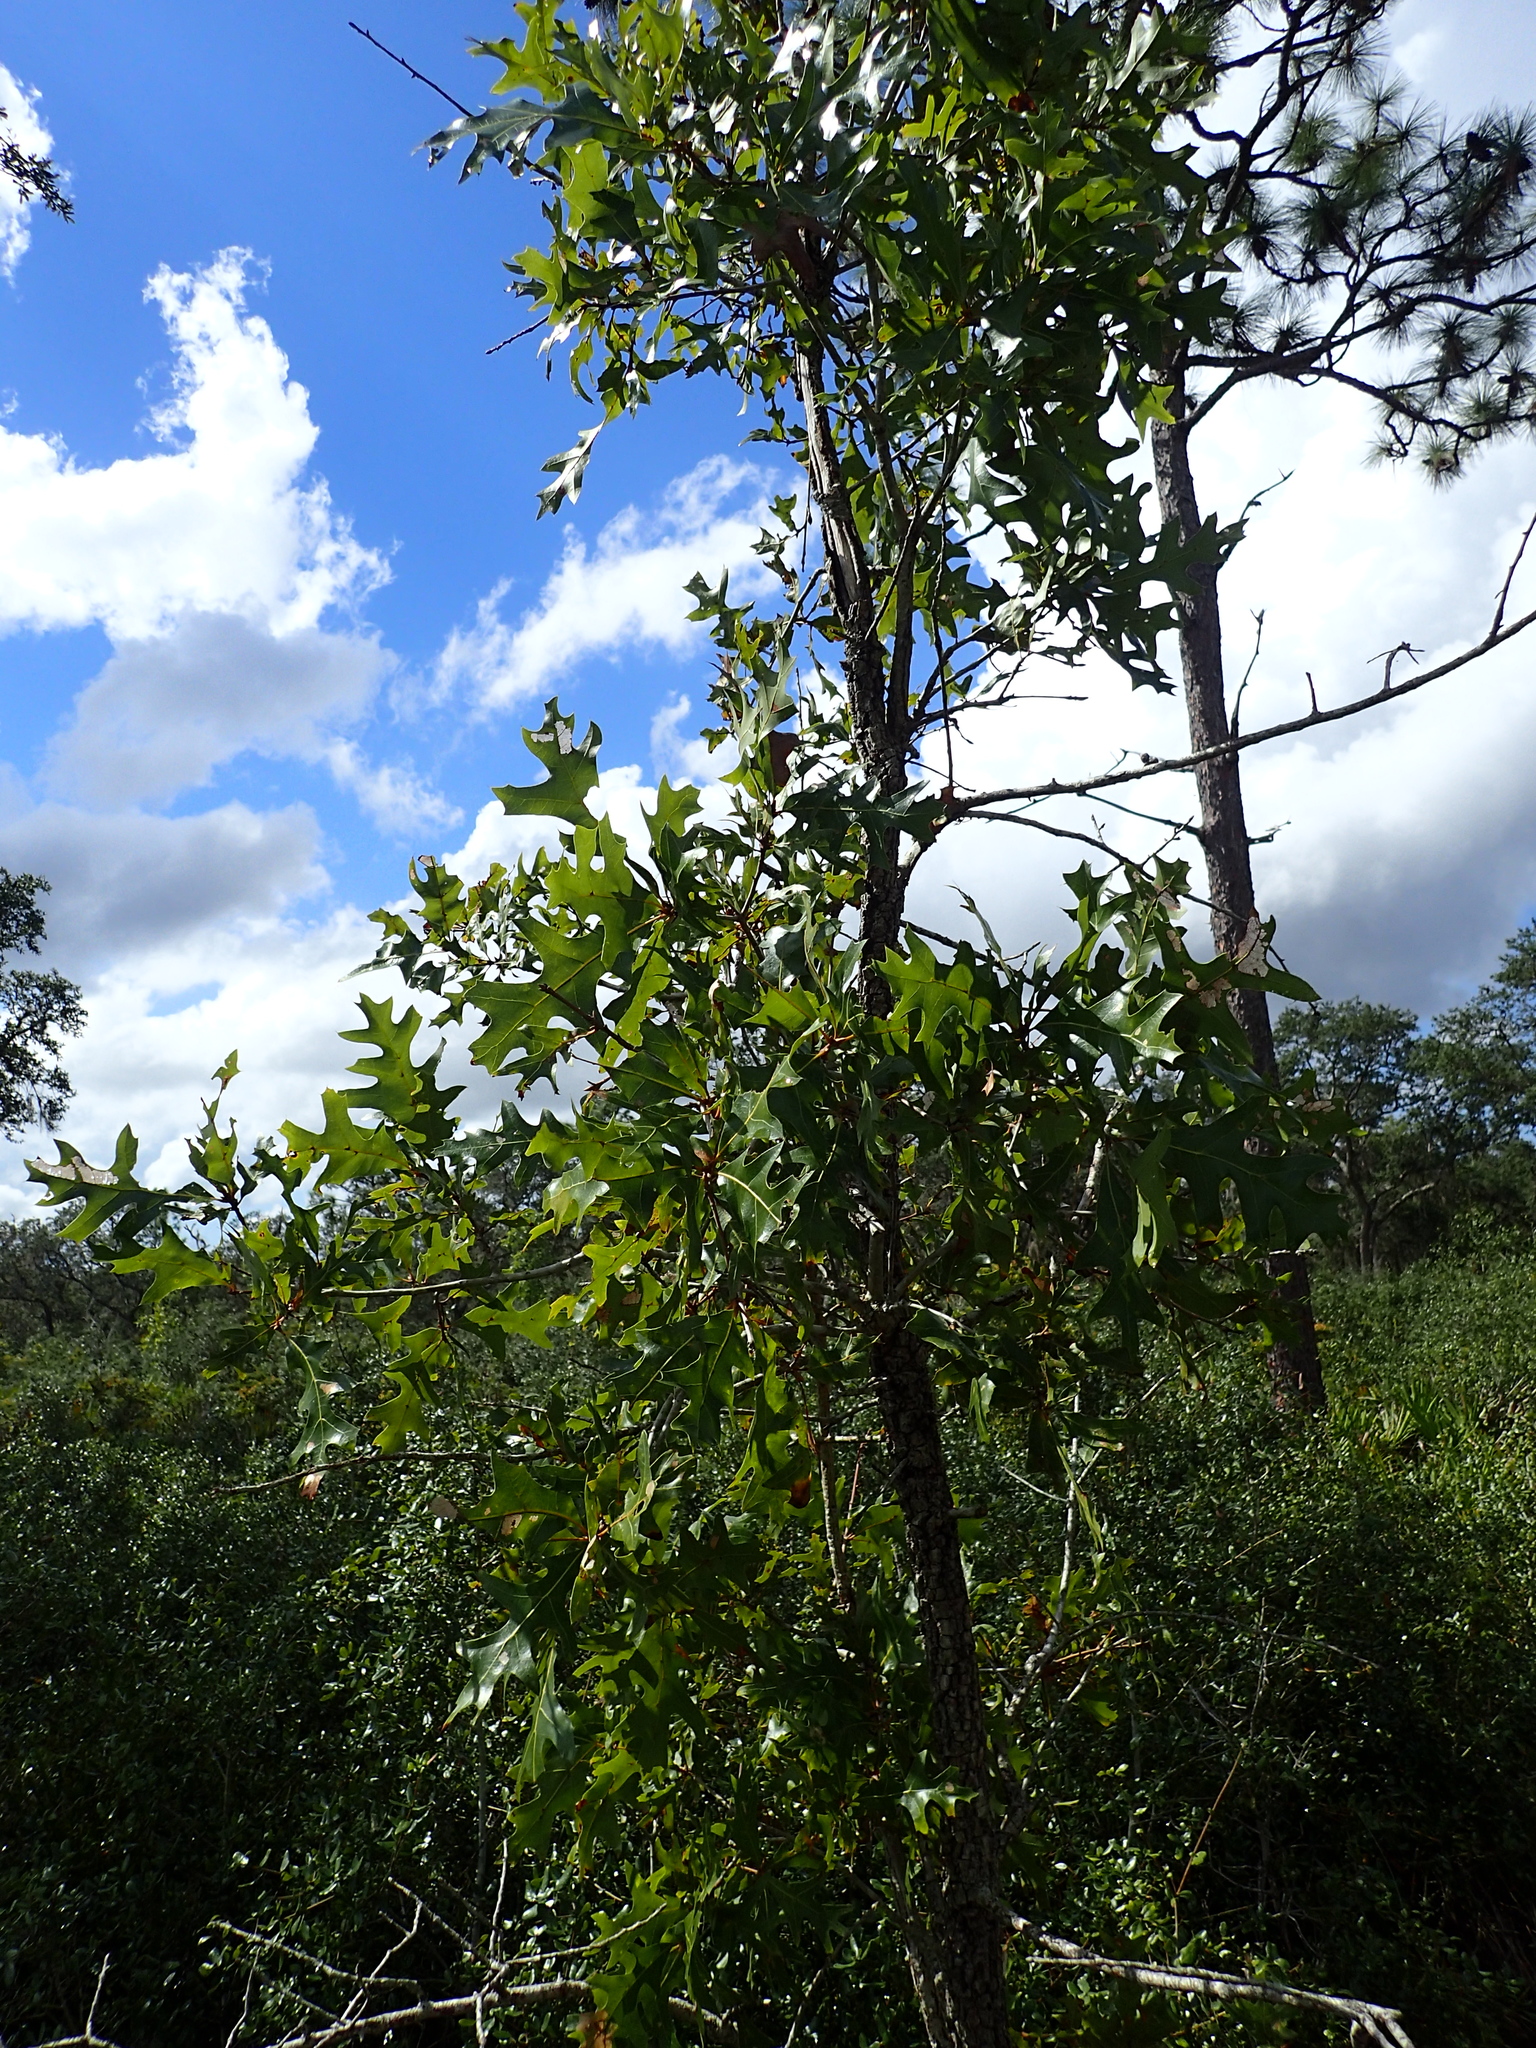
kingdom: Plantae
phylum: Tracheophyta
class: Magnoliopsida
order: Fagales
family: Fagaceae
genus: Quercus
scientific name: Quercus laevis
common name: Turkey oak
